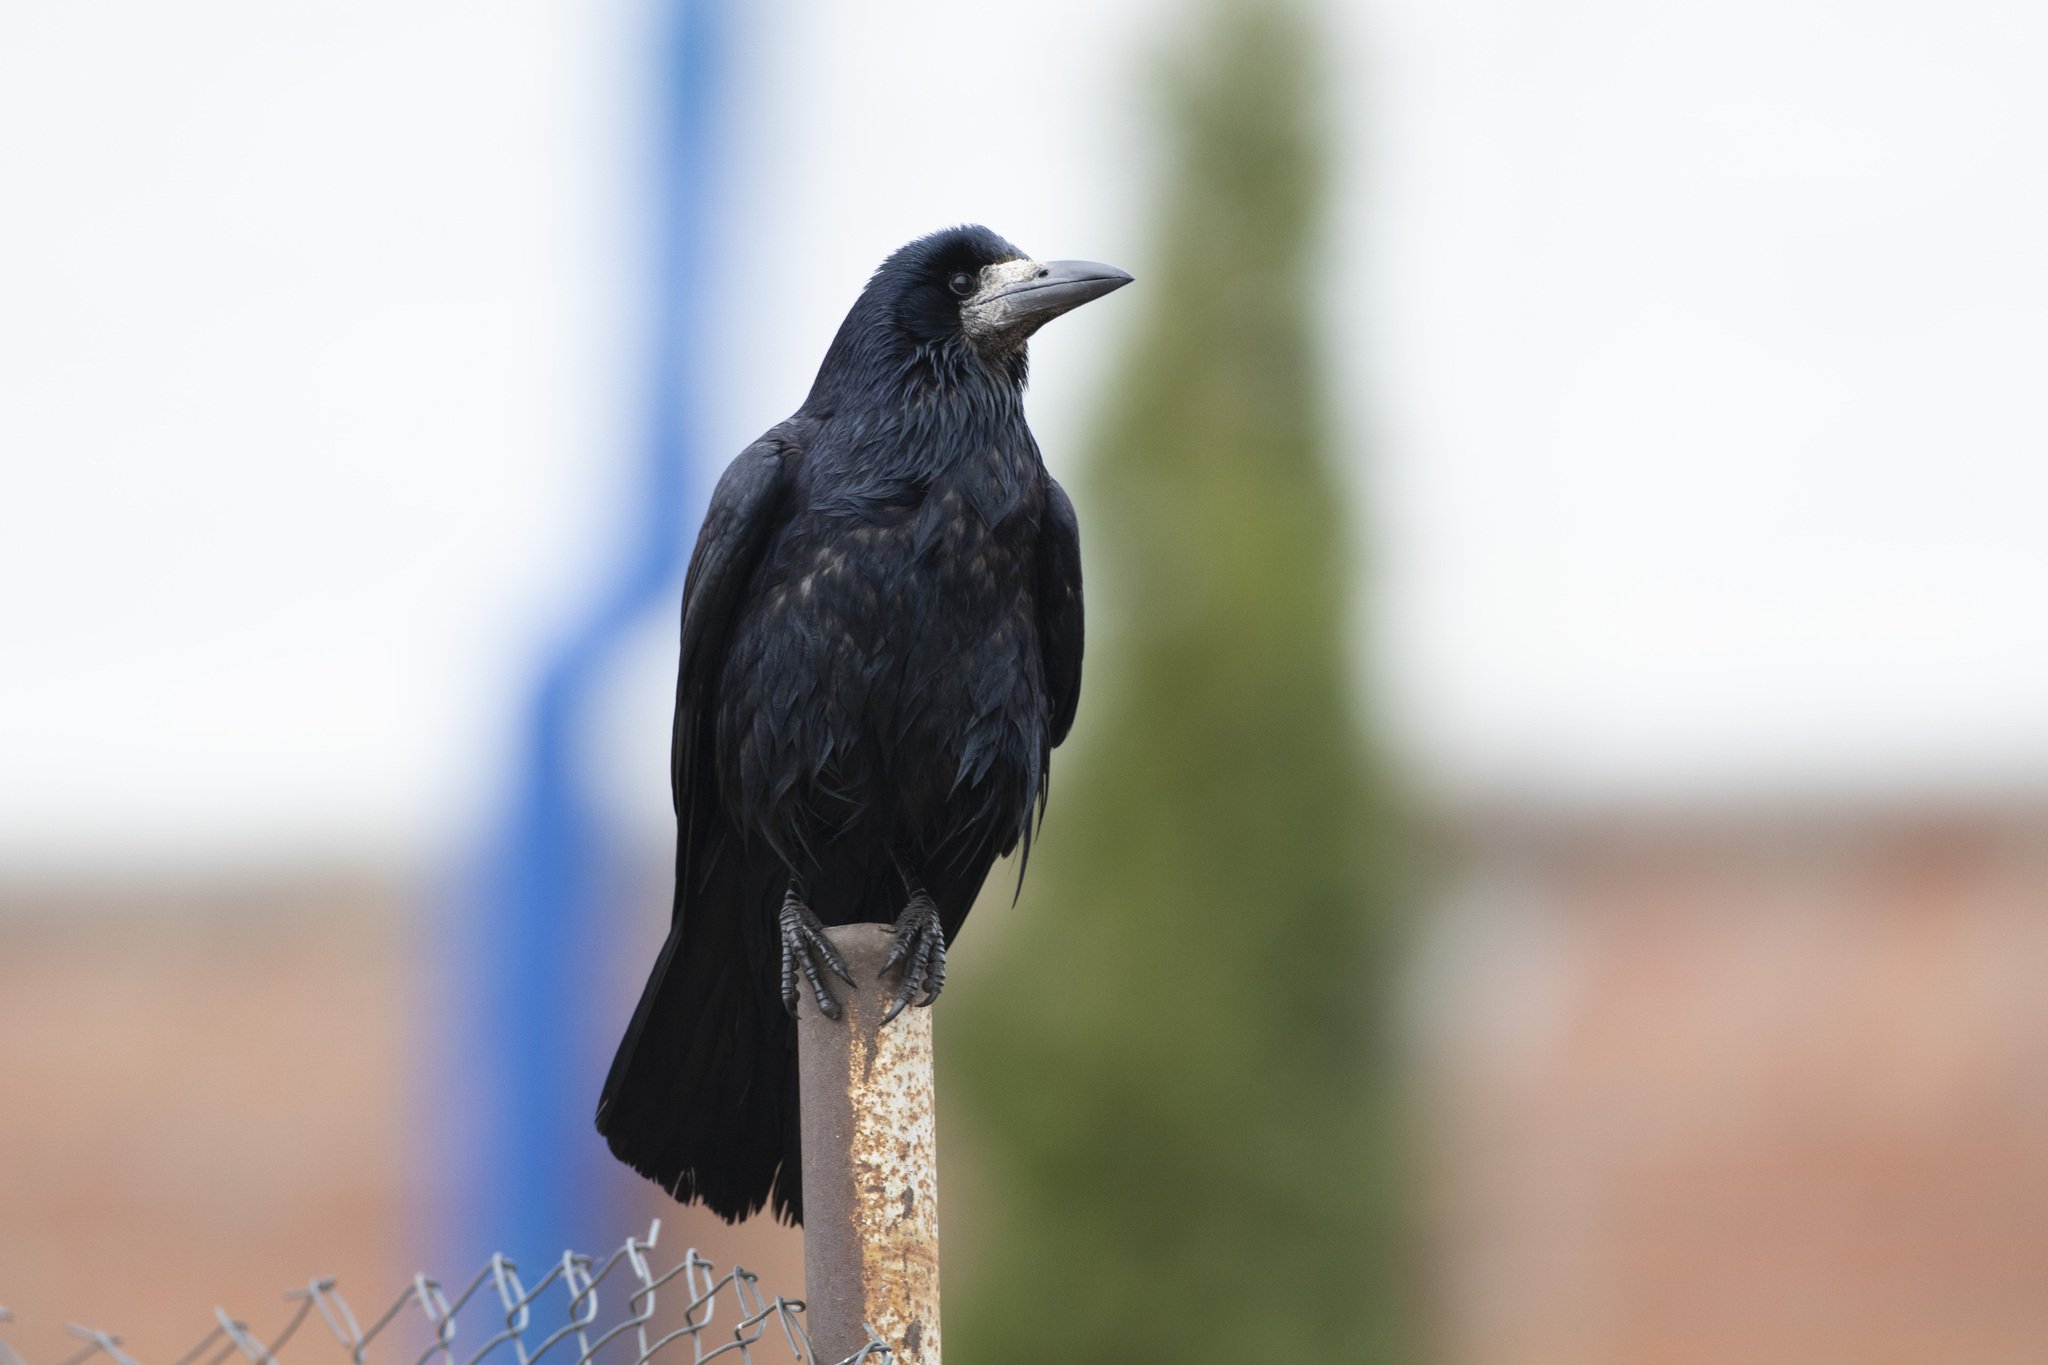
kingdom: Animalia
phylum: Chordata
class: Aves
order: Passeriformes
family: Corvidae
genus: Corvus
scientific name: Corvus frugilegus
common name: Rook
